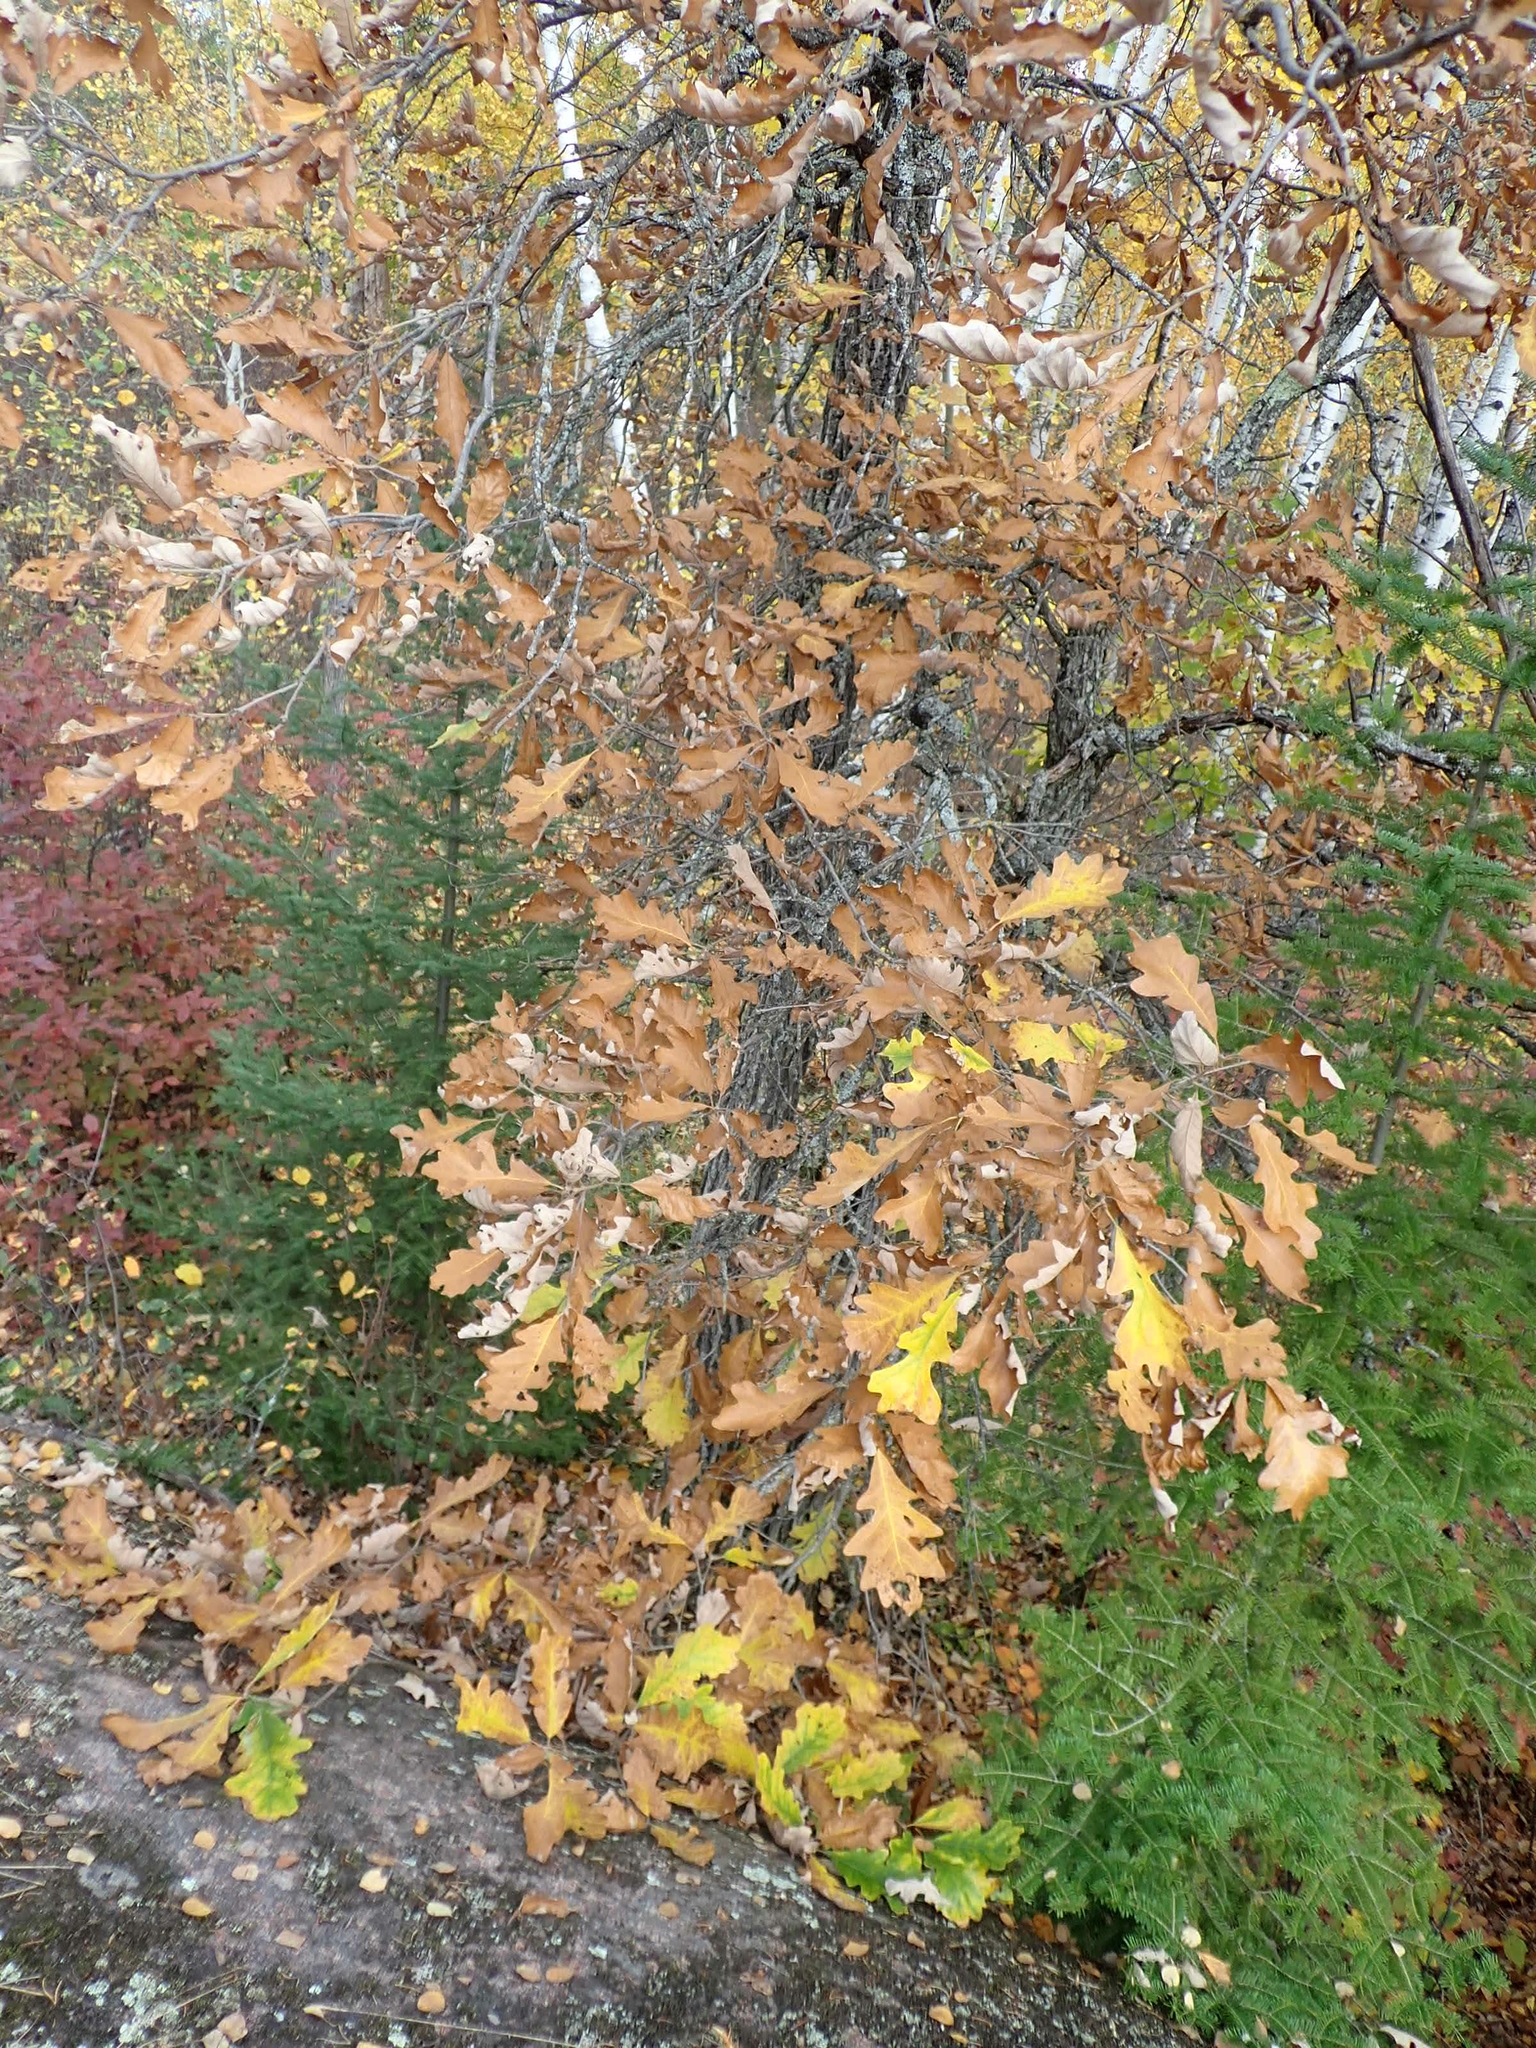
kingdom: Plantae
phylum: Tracheophyta
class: Magnoliopsida
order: Fagales
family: Fagaceae
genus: Quercus
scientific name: Quercus macrocarpa
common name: Bur oak
